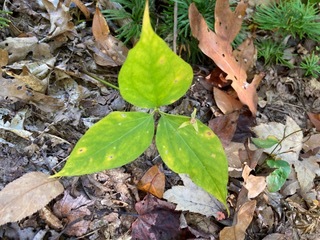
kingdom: Plantae
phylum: Tracheophyta
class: Liliopsida
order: Liliales
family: Melanthiaceae
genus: Trillium
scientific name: Trillium undulatum
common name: Paint trillium
